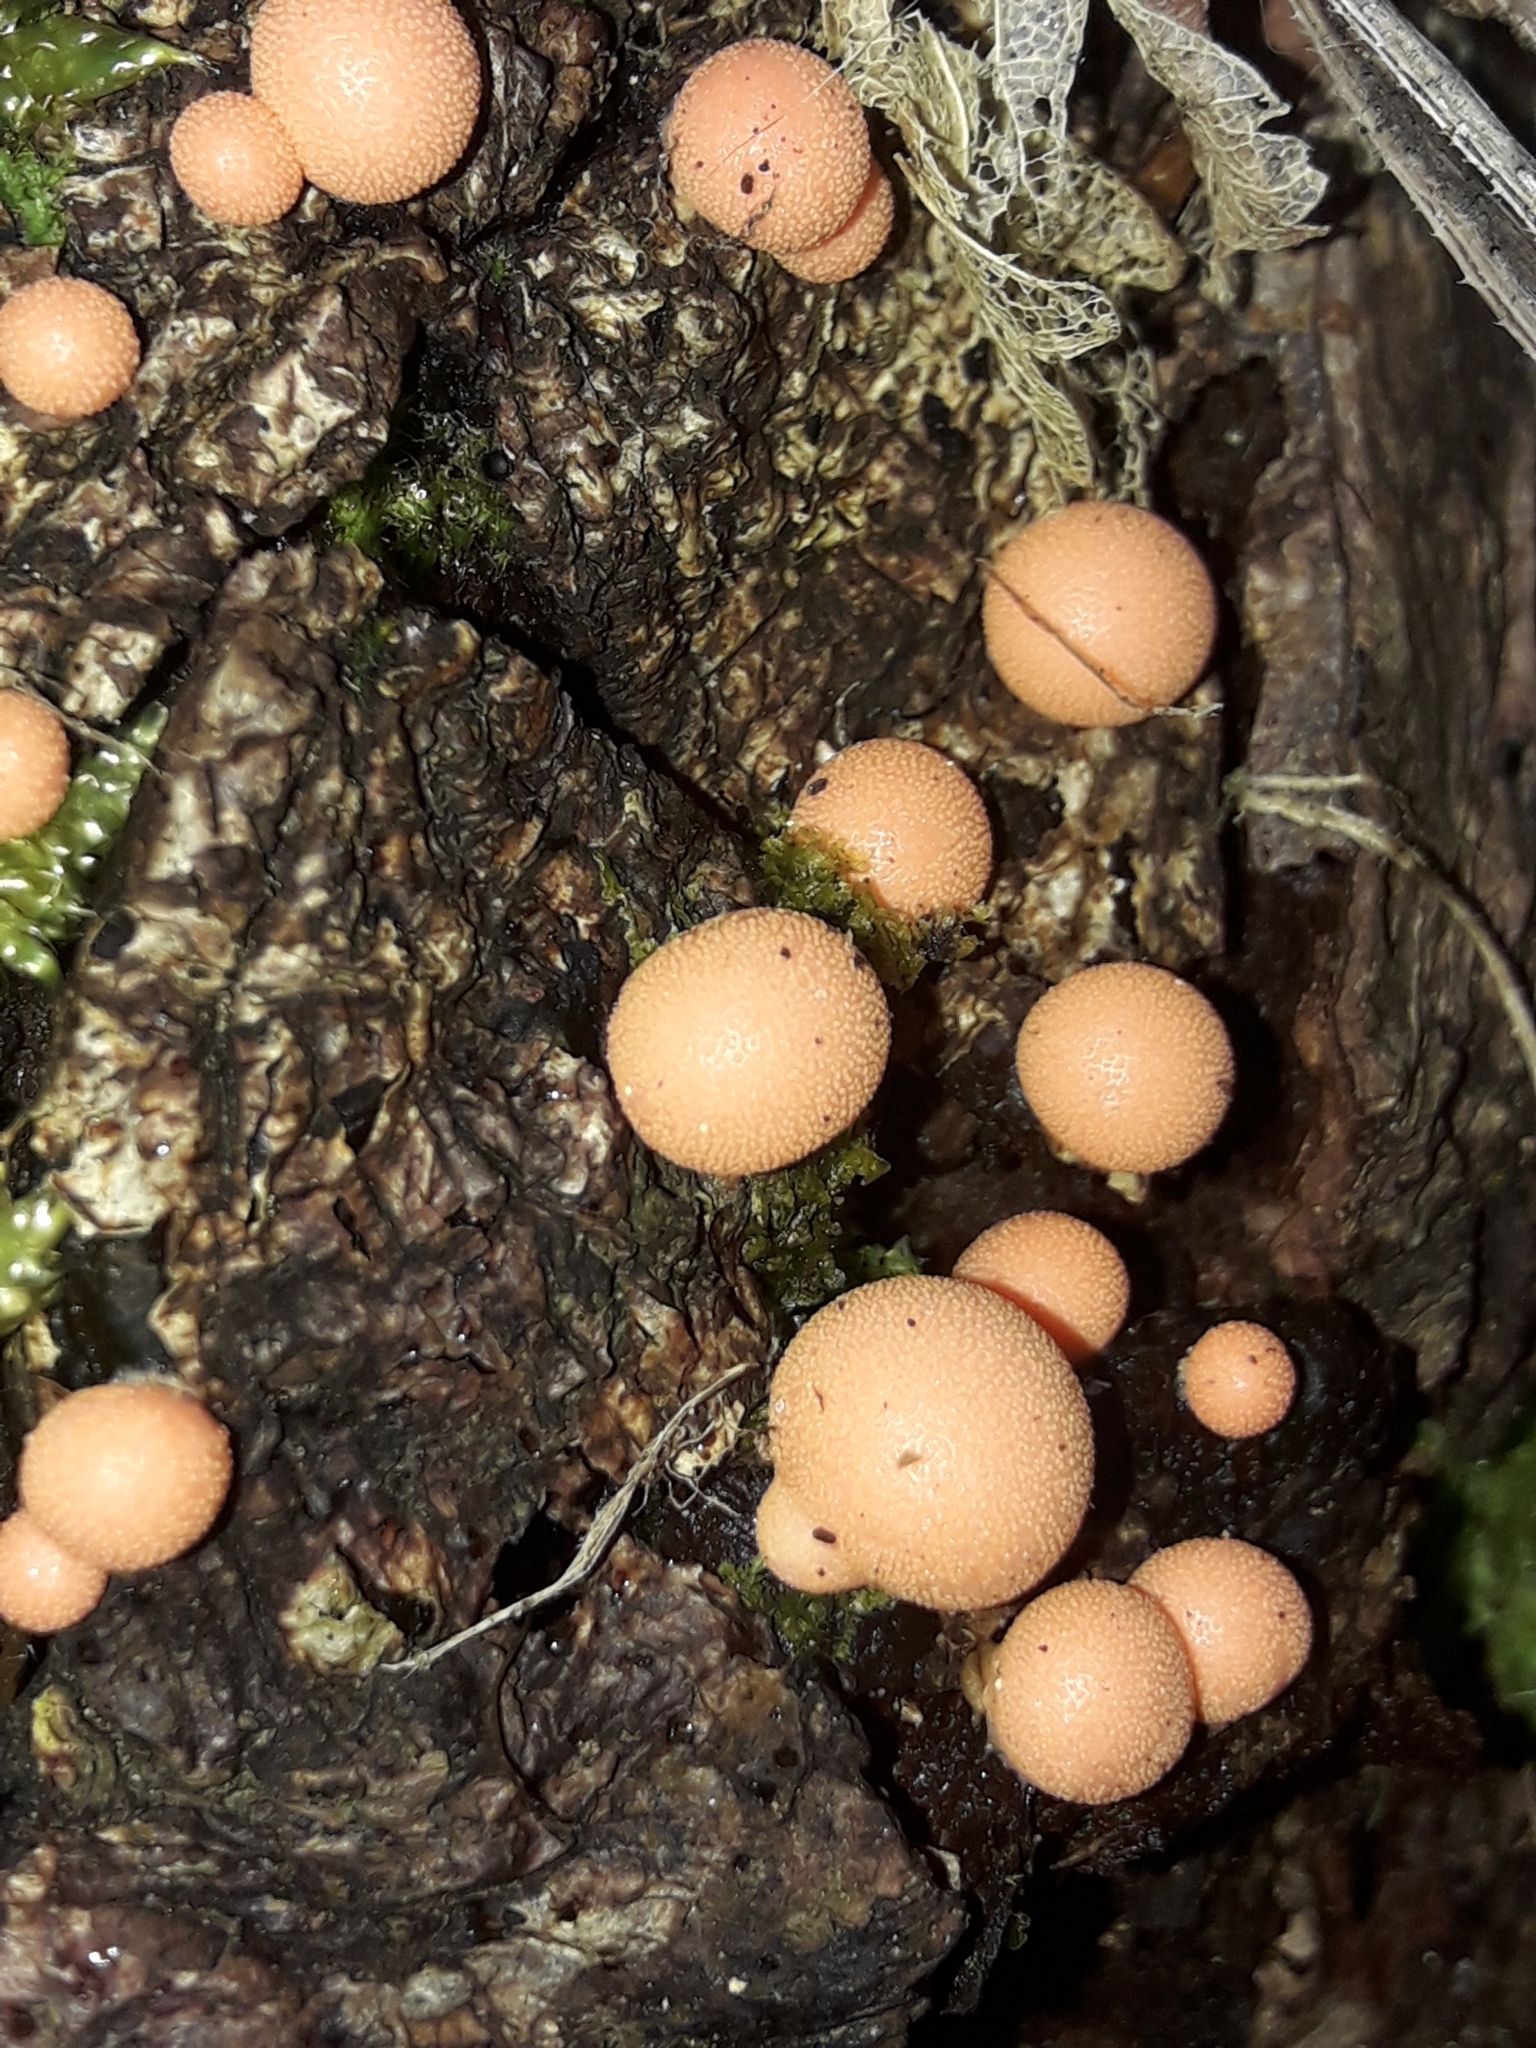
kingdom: Protozoa
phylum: Mycetozoa
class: Myxomycetes
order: Cribrariales
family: Tubiferaceae
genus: Lycogala
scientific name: Lycogala epidendrum
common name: Wolf's milk
